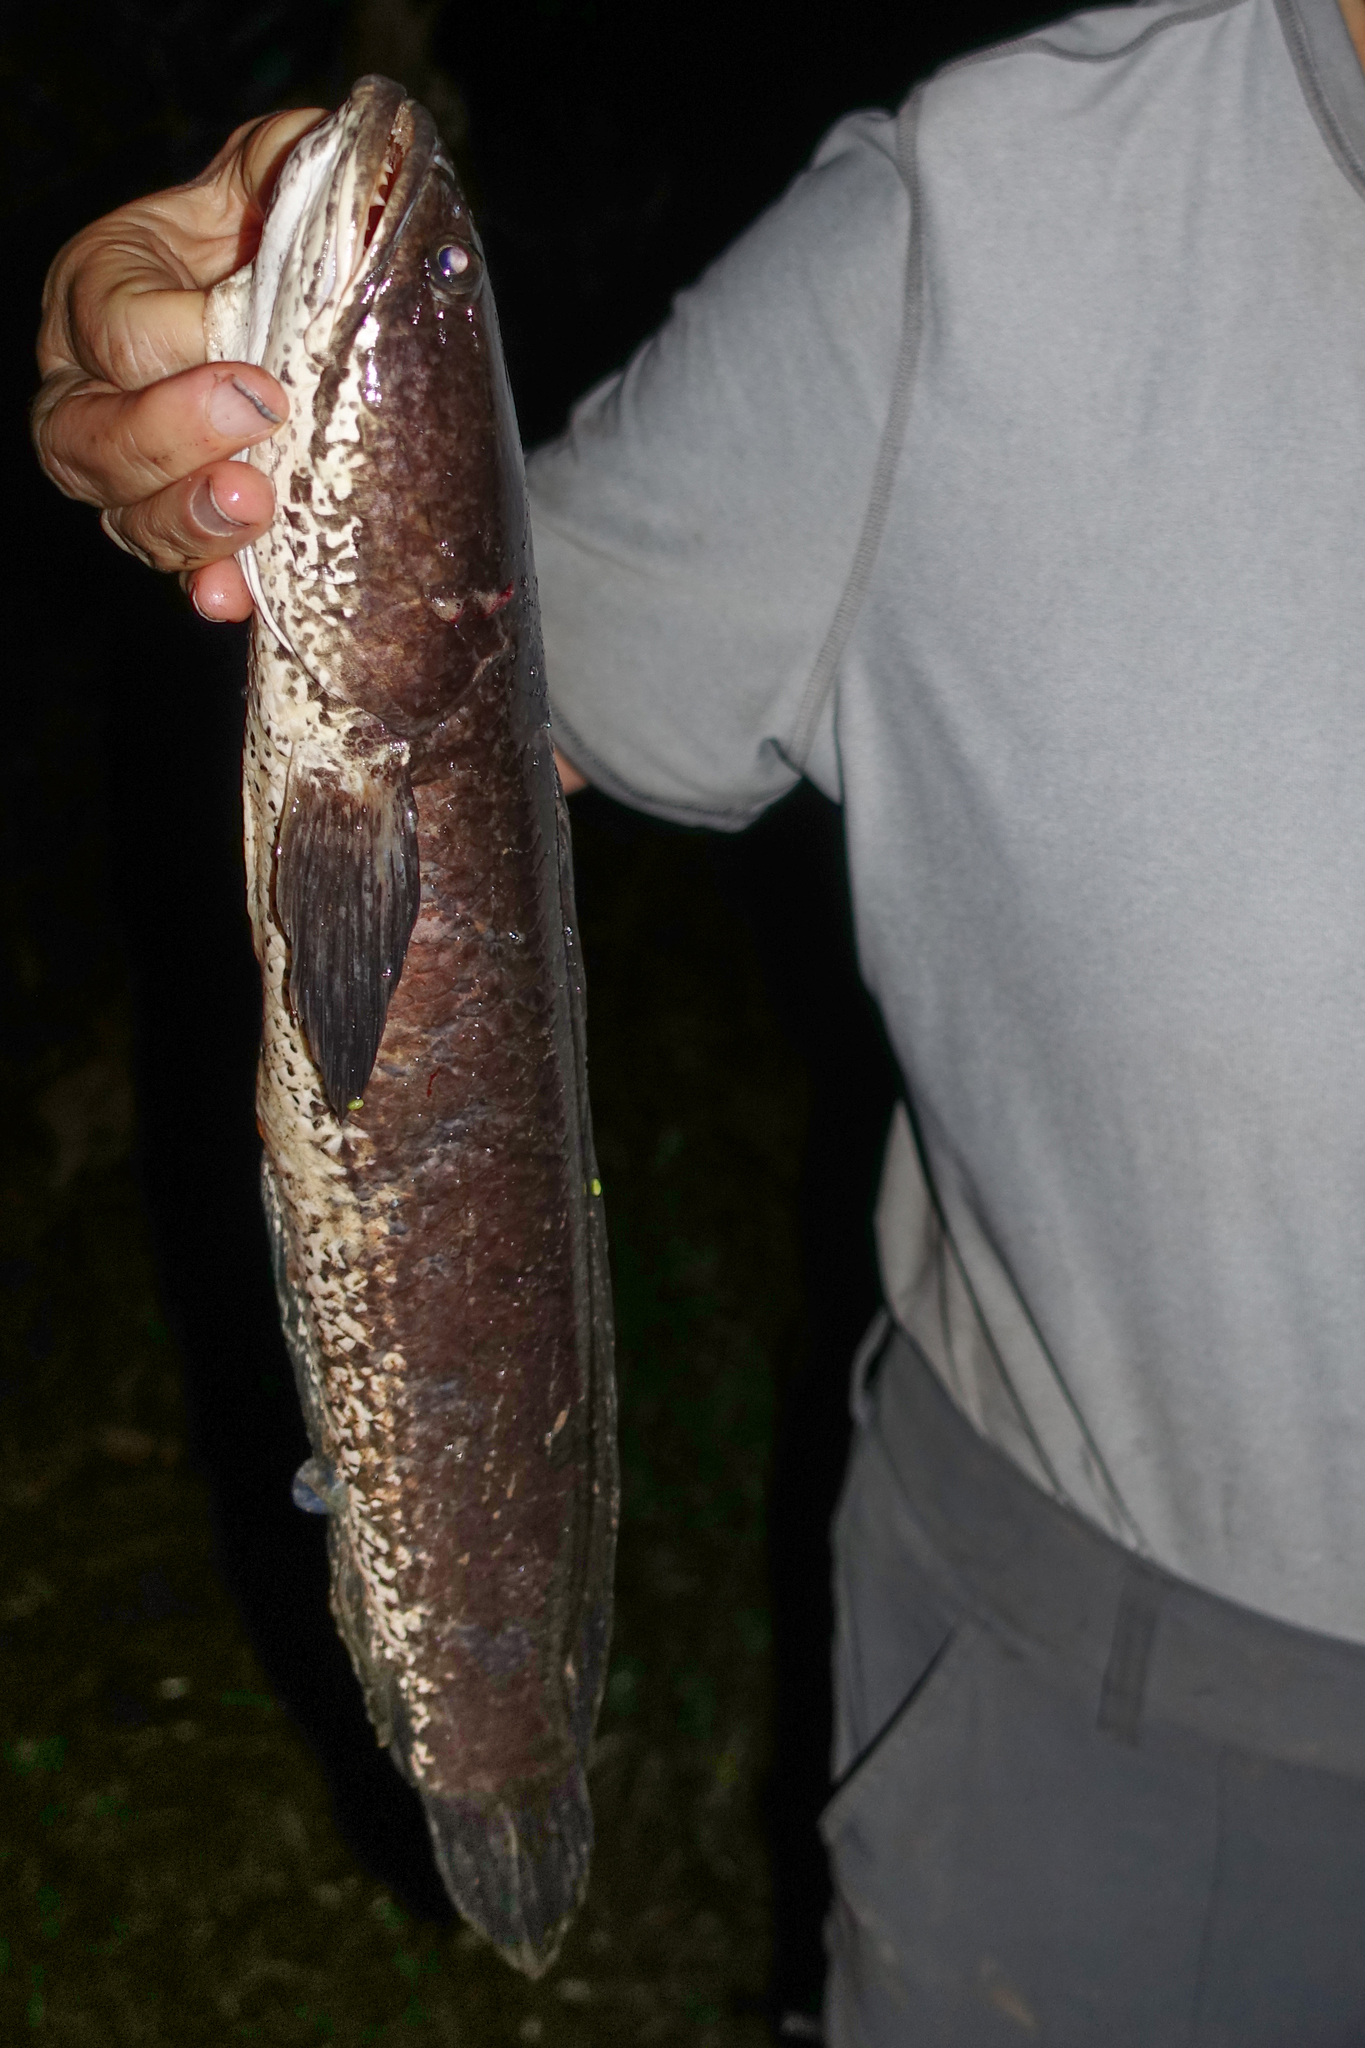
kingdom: Animalia
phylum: Chordata
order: Perciformes
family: Channidae
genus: Channa
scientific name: Channa striata
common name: Striped snakehead
